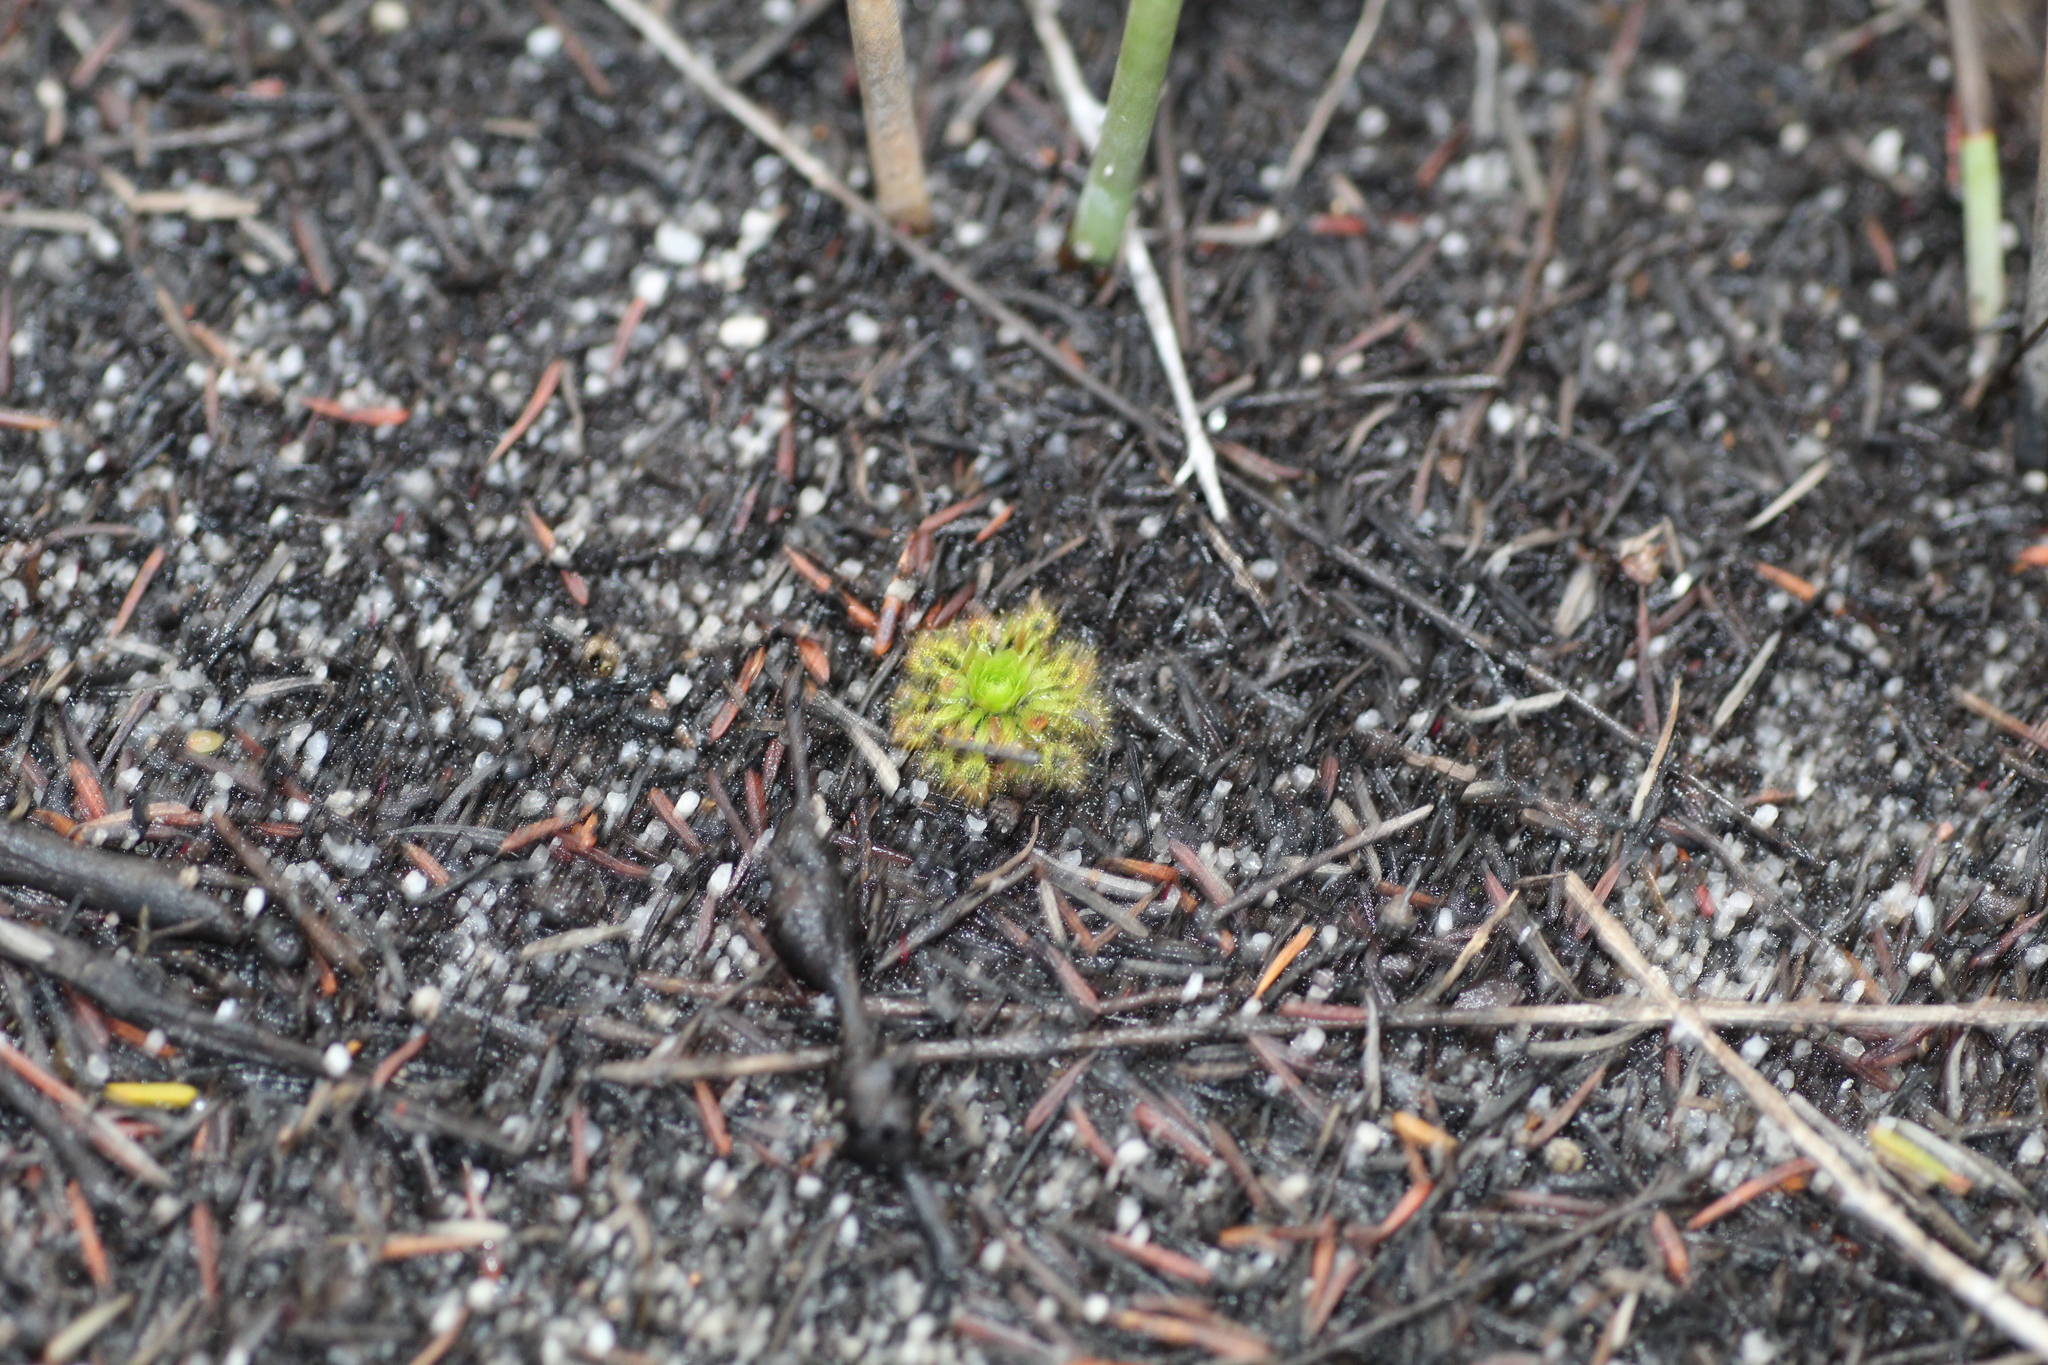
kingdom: Plantae
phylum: Tracheophyta
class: Magnoliopsida
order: Caryophyllales
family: Droseraceae
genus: Drosera
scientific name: Drosera patens
